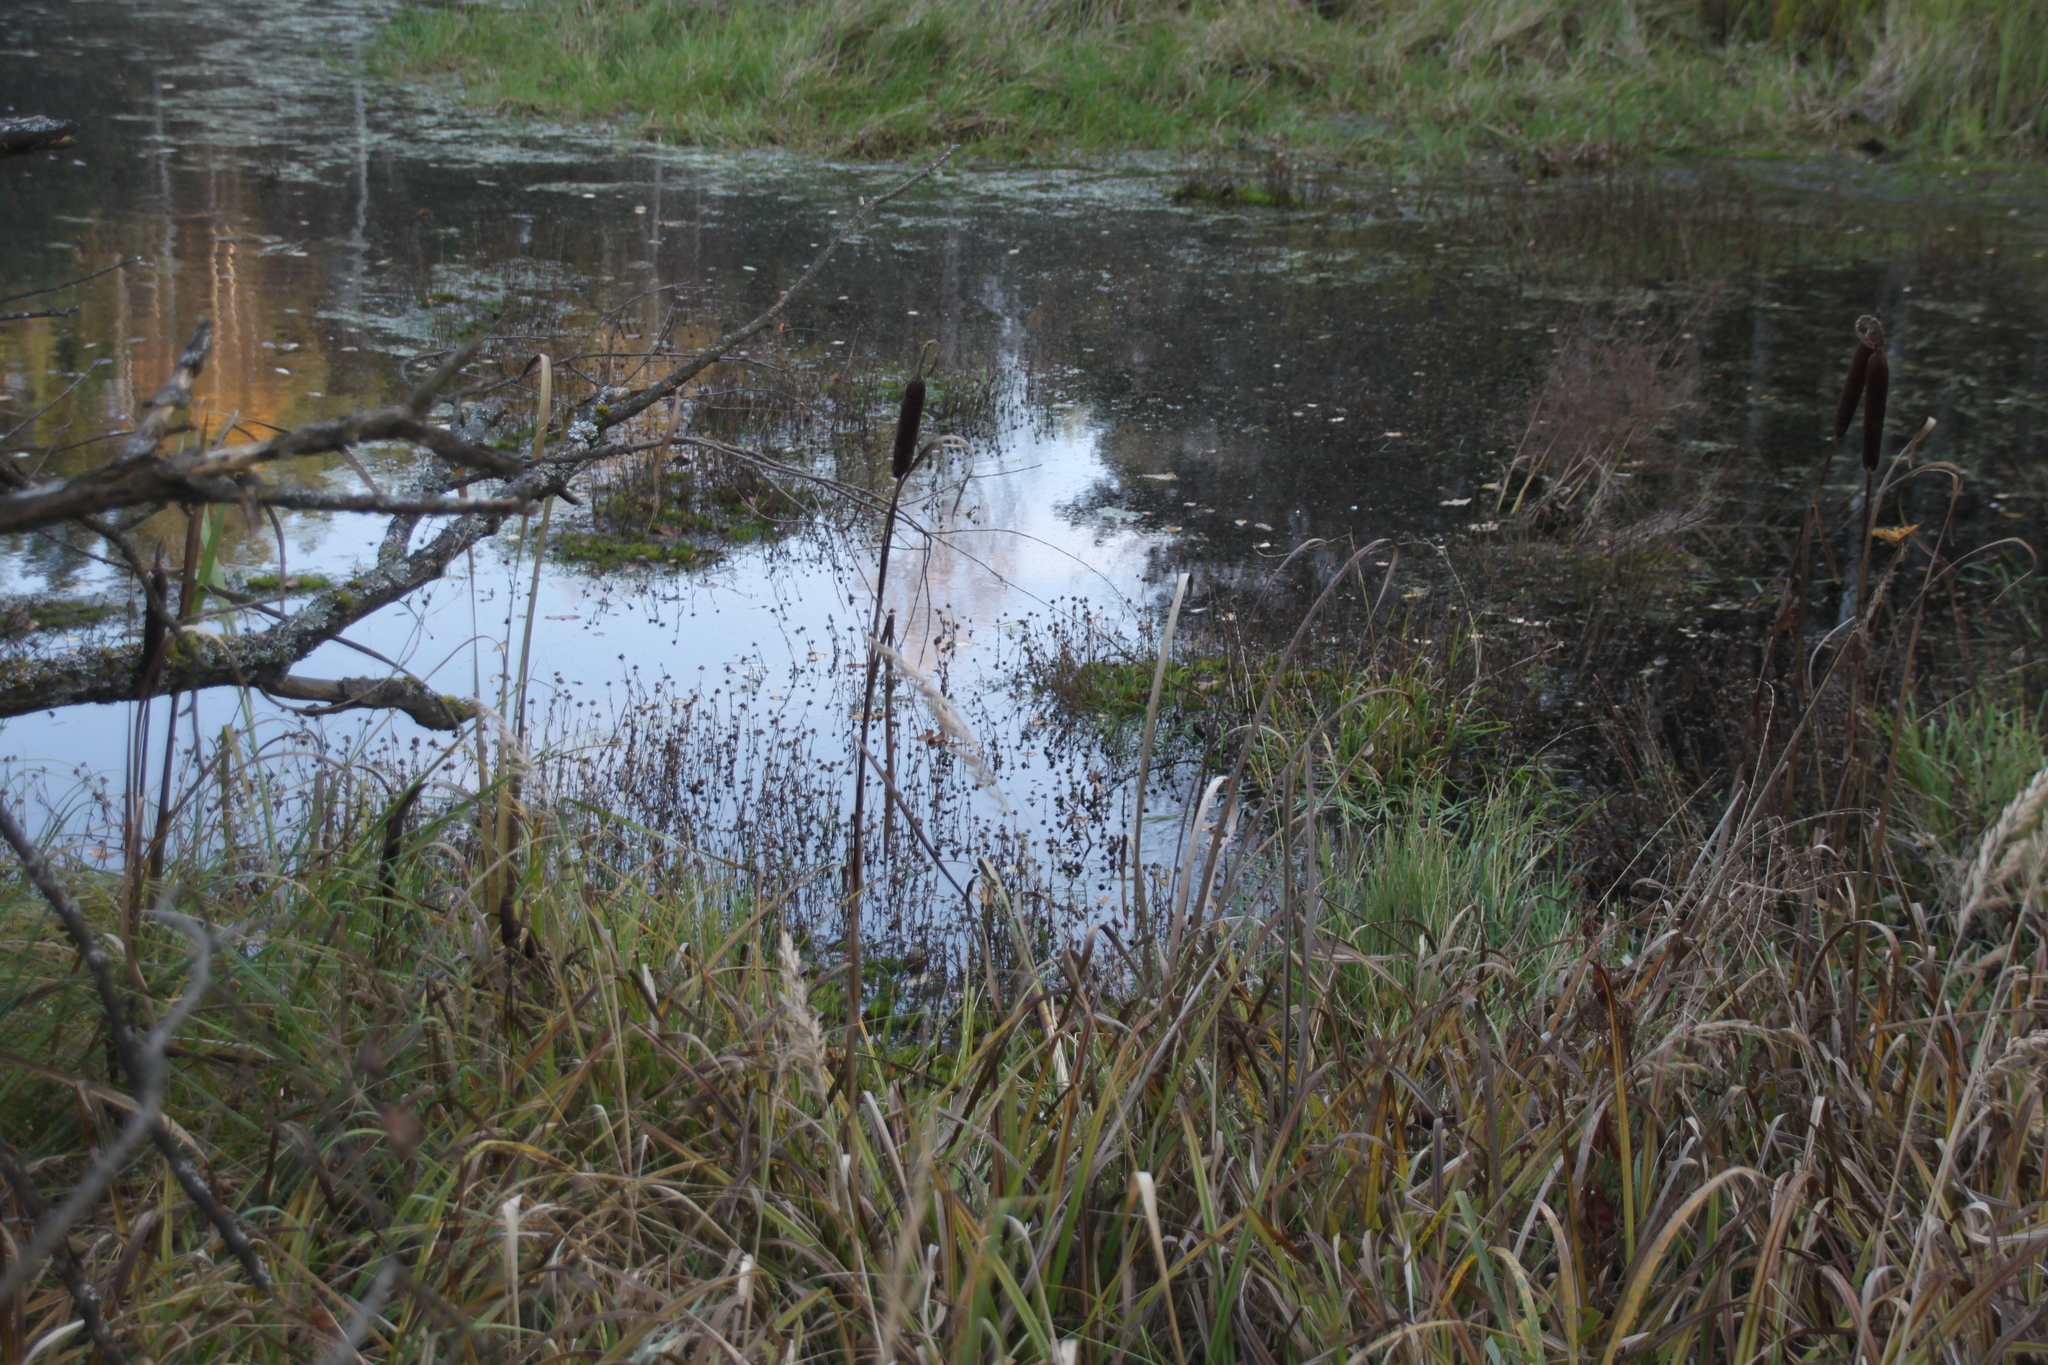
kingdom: Plantae
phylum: Tracheophyta
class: Liliopsida
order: Poales
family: Typhaceae
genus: Typha
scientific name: Typha latifolia
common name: Broadleaf cattail
